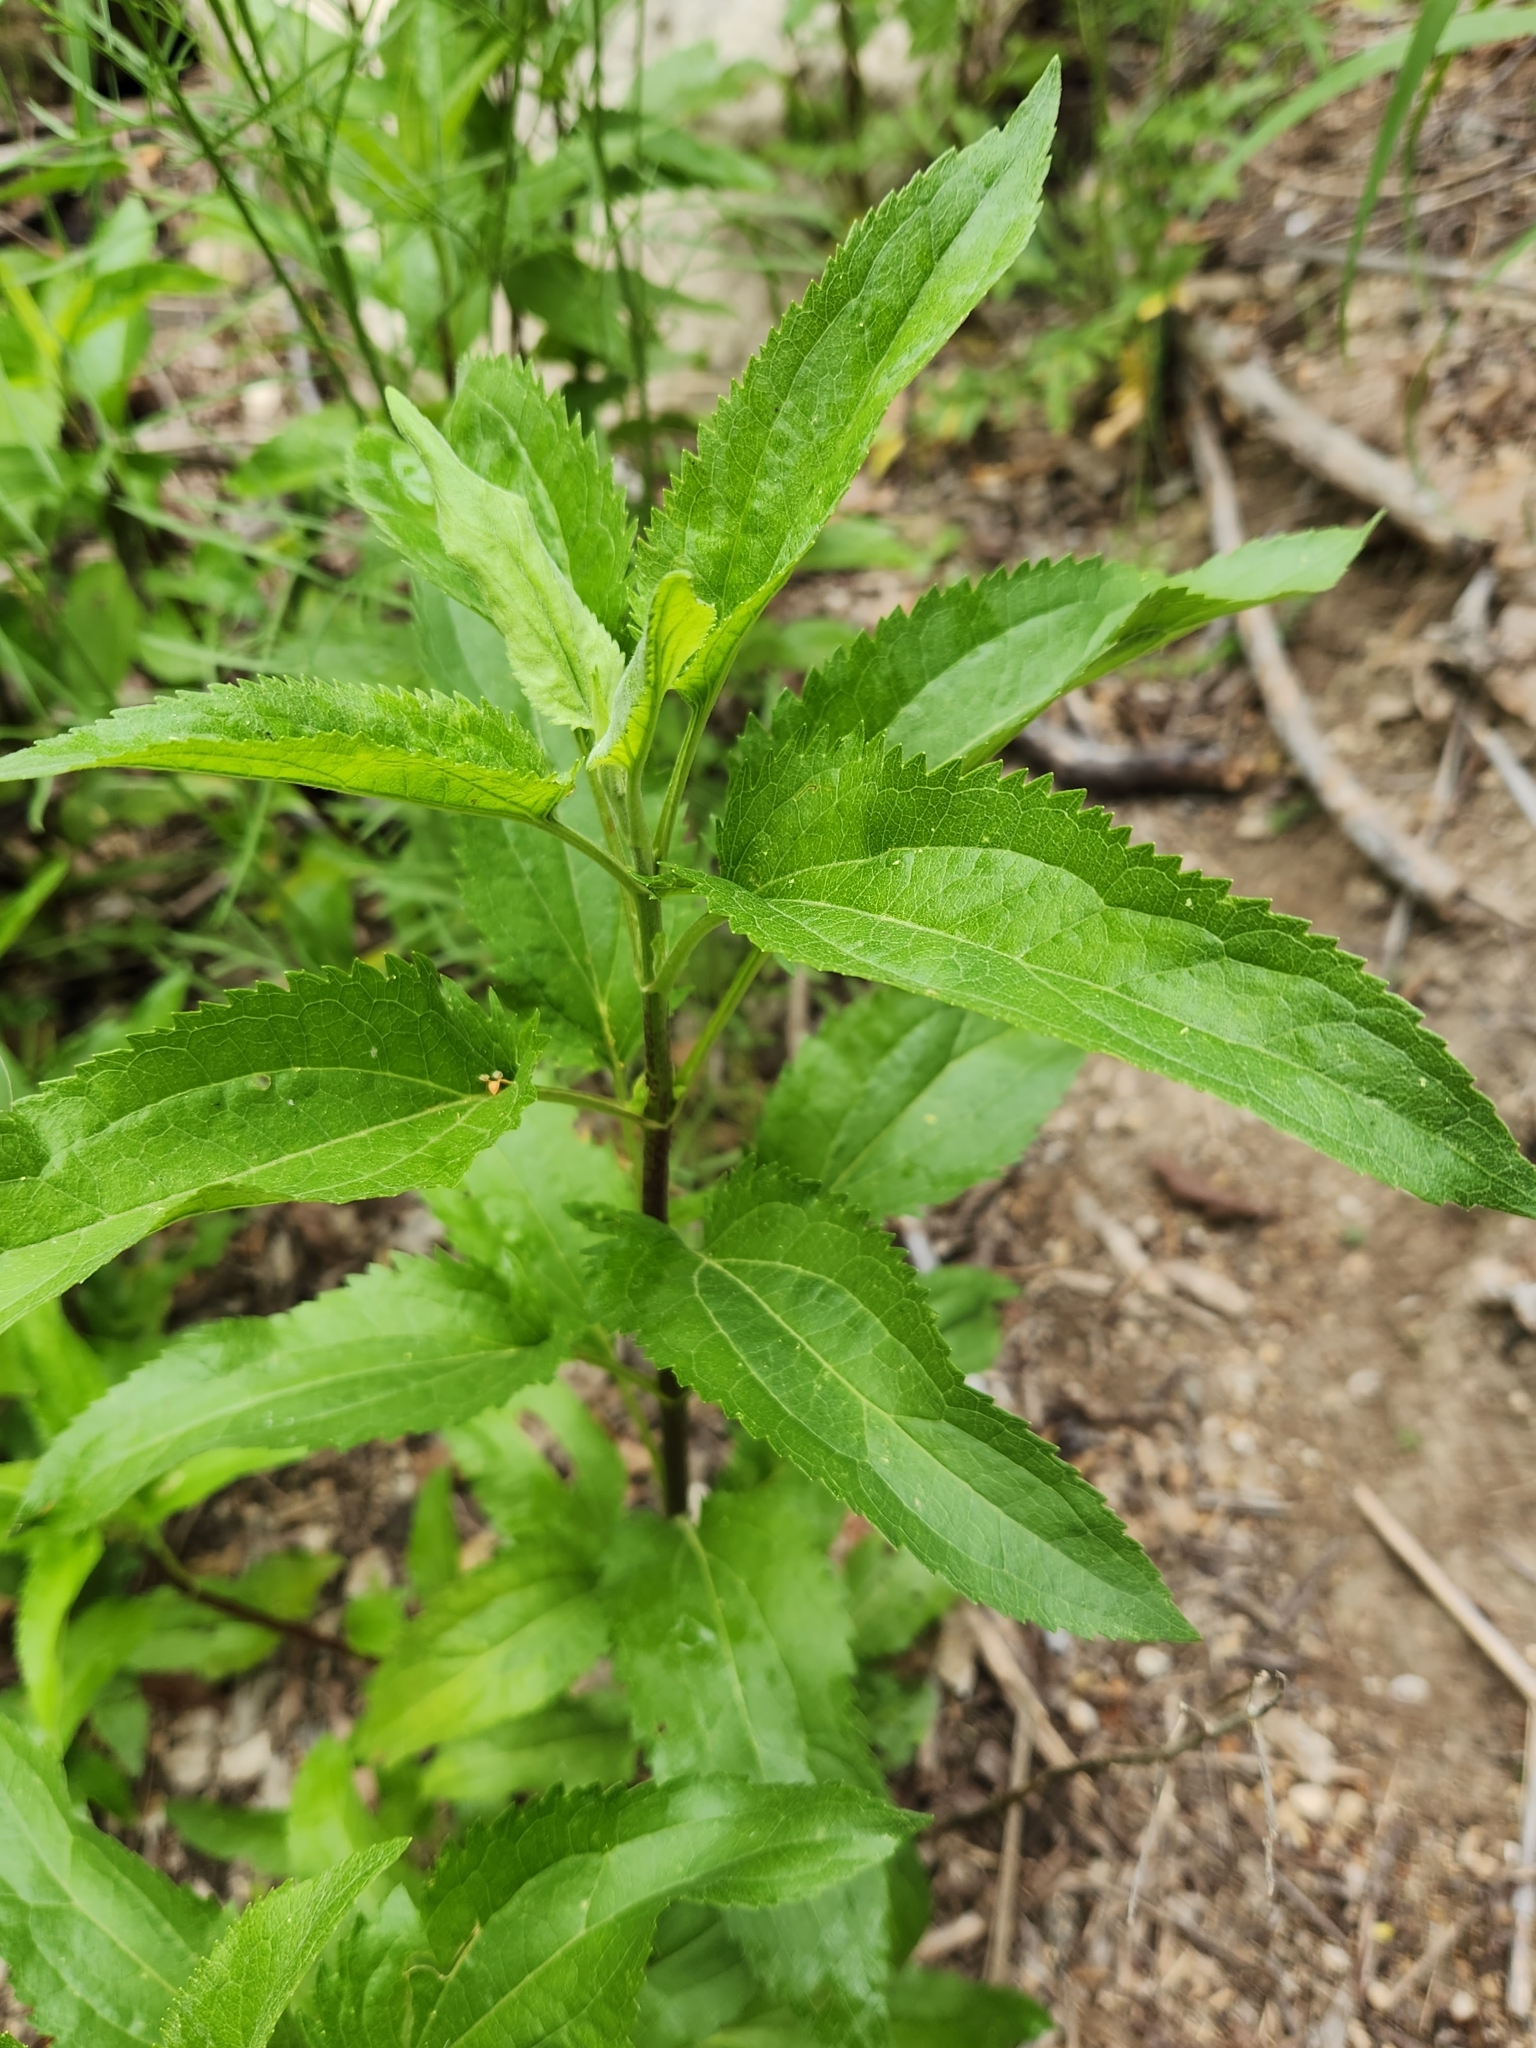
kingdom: Plantae
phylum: Tracheophyta
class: Magnoliopsida
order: Asterales
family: Asteraceae
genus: Eupatorium
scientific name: Eupatorium serotinum
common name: Late boneset
